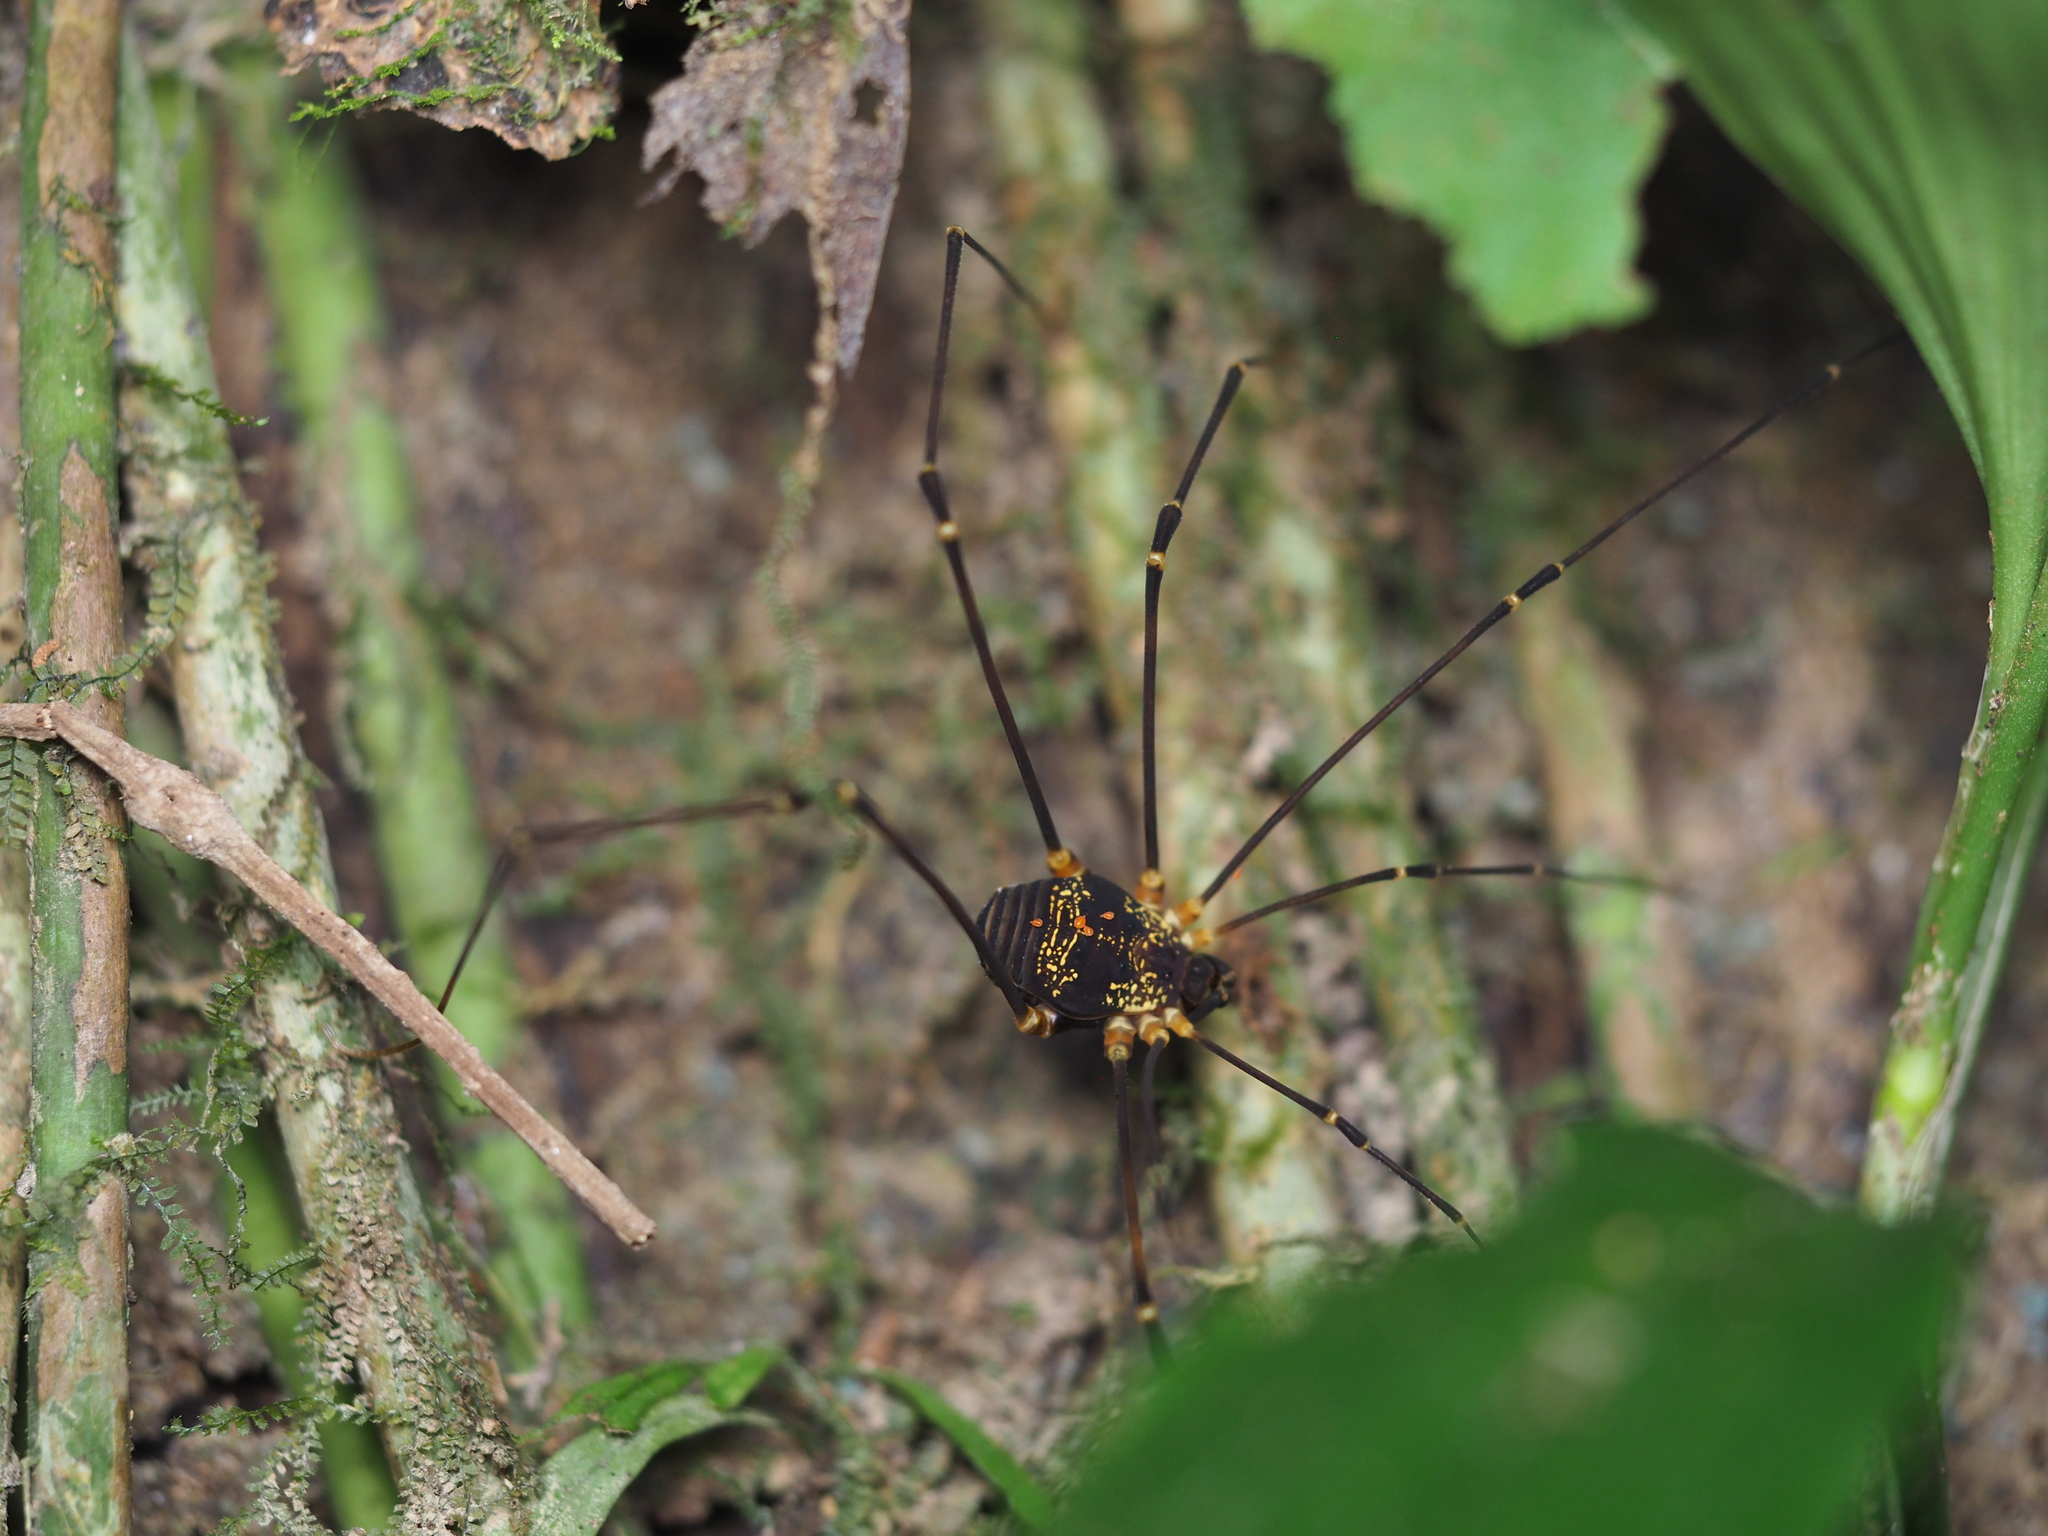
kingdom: Animalia
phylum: Arthropoda
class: Arachnida
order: Opiliones
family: Cosmetidae
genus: Eupoecilaema
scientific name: Eupoecilaema magnum
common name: Harvestmen
